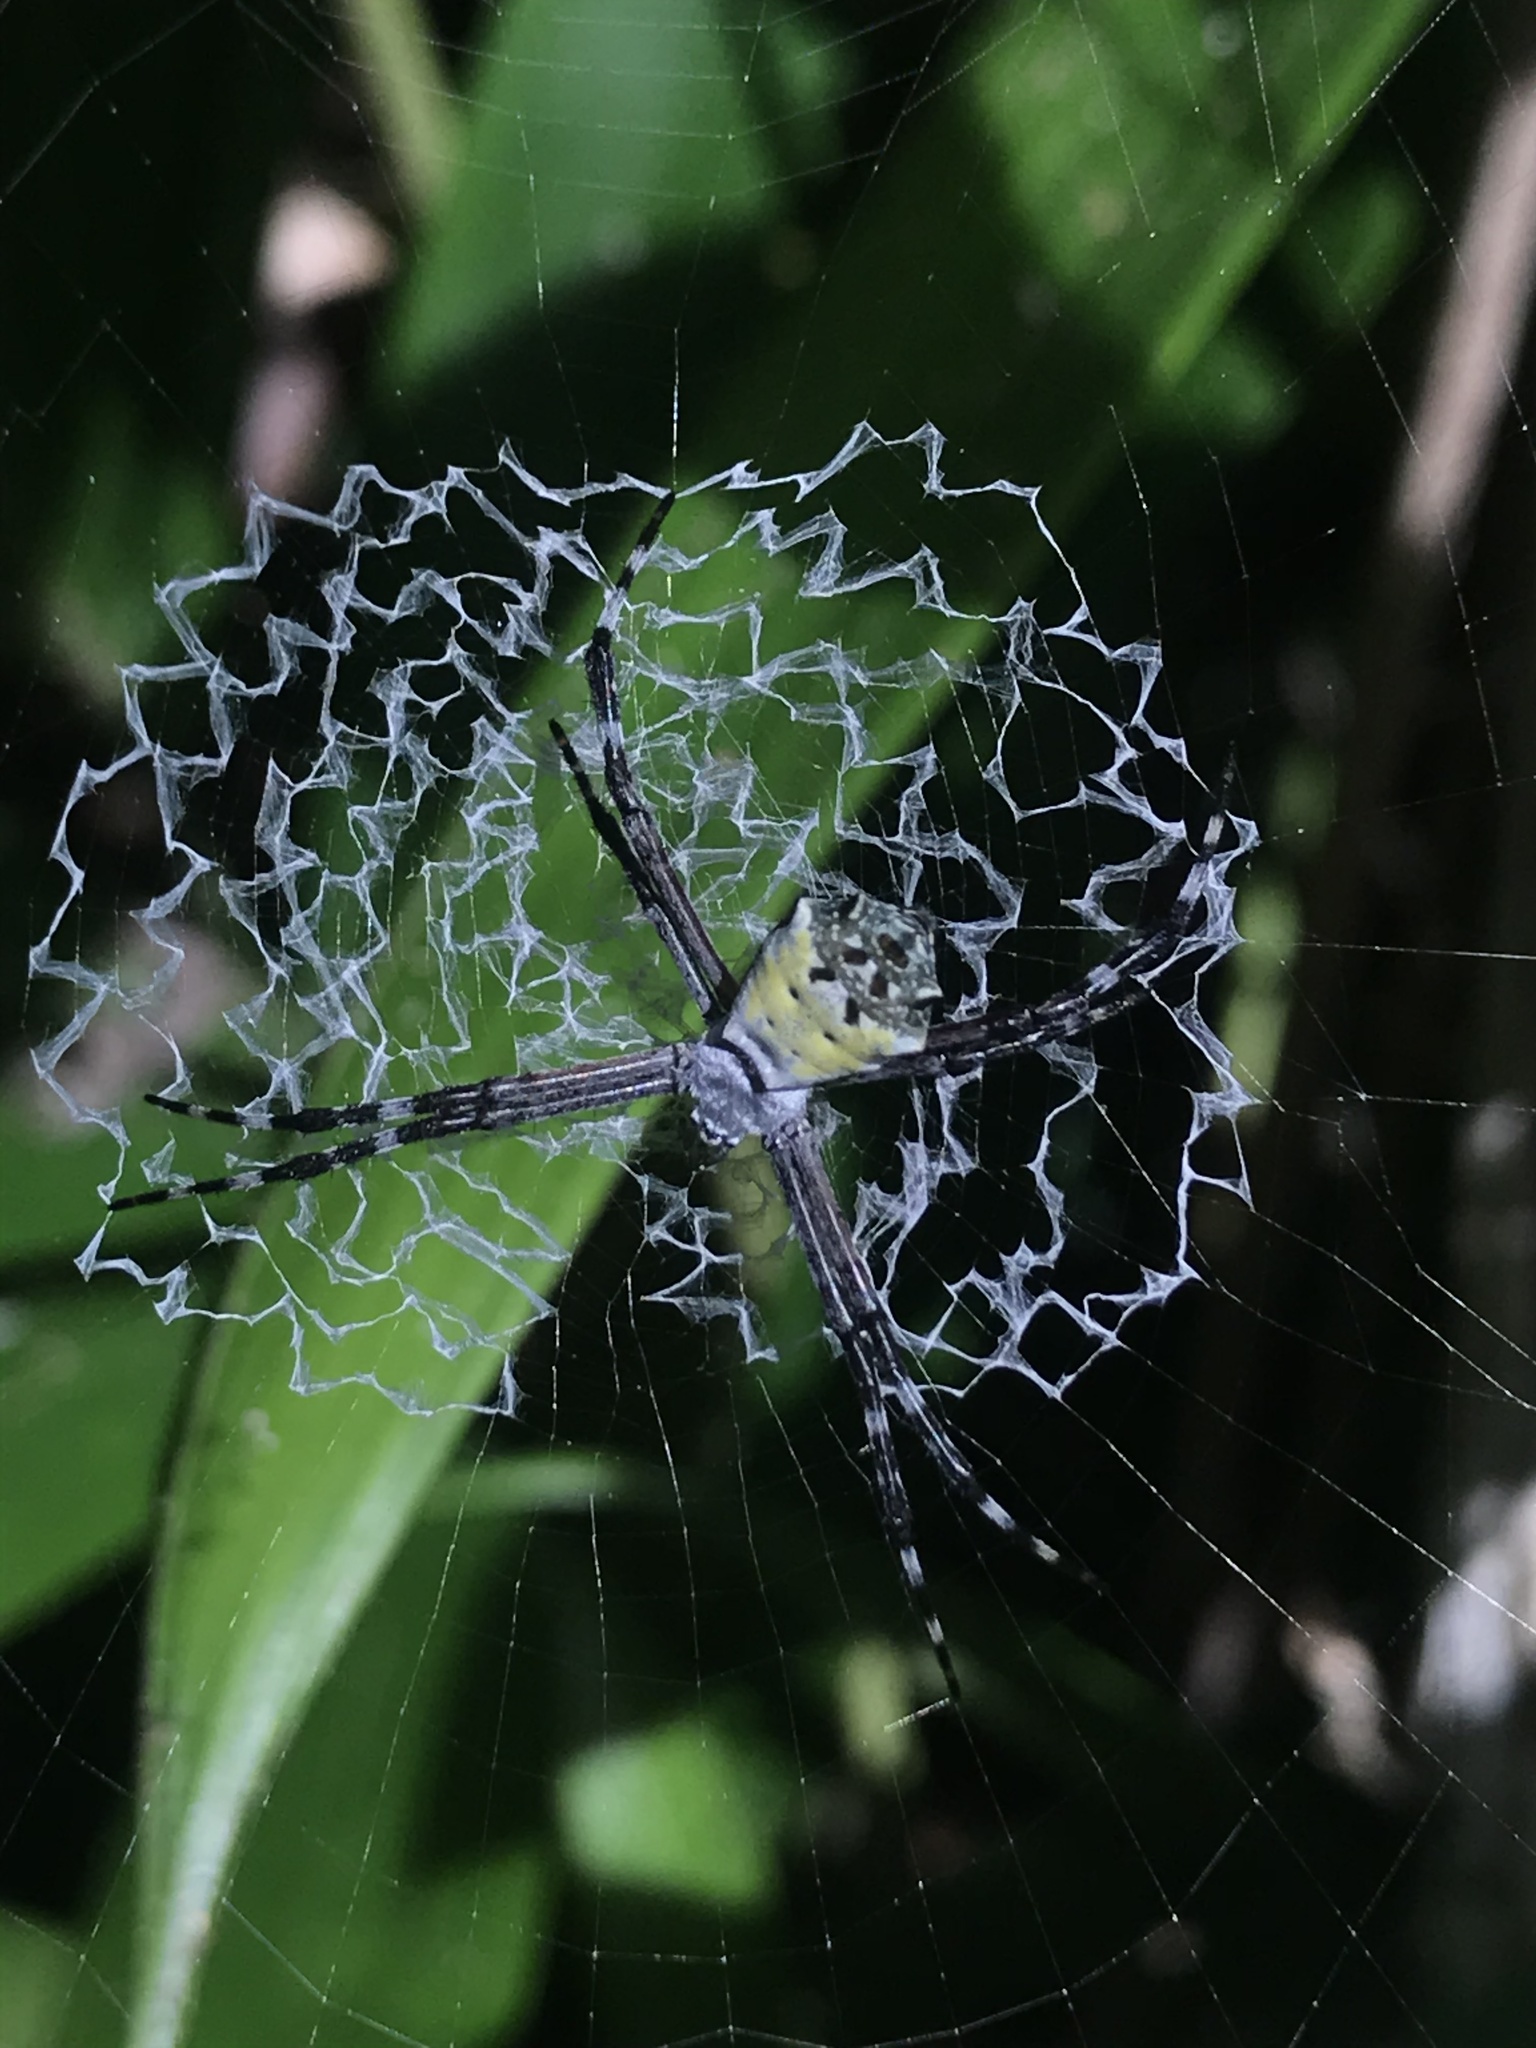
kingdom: Animalia
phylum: Arthropoda
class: Arachnida
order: Araneae
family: Araneidae
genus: Argiope
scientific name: Argiope submaronica
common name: Orb weavers
